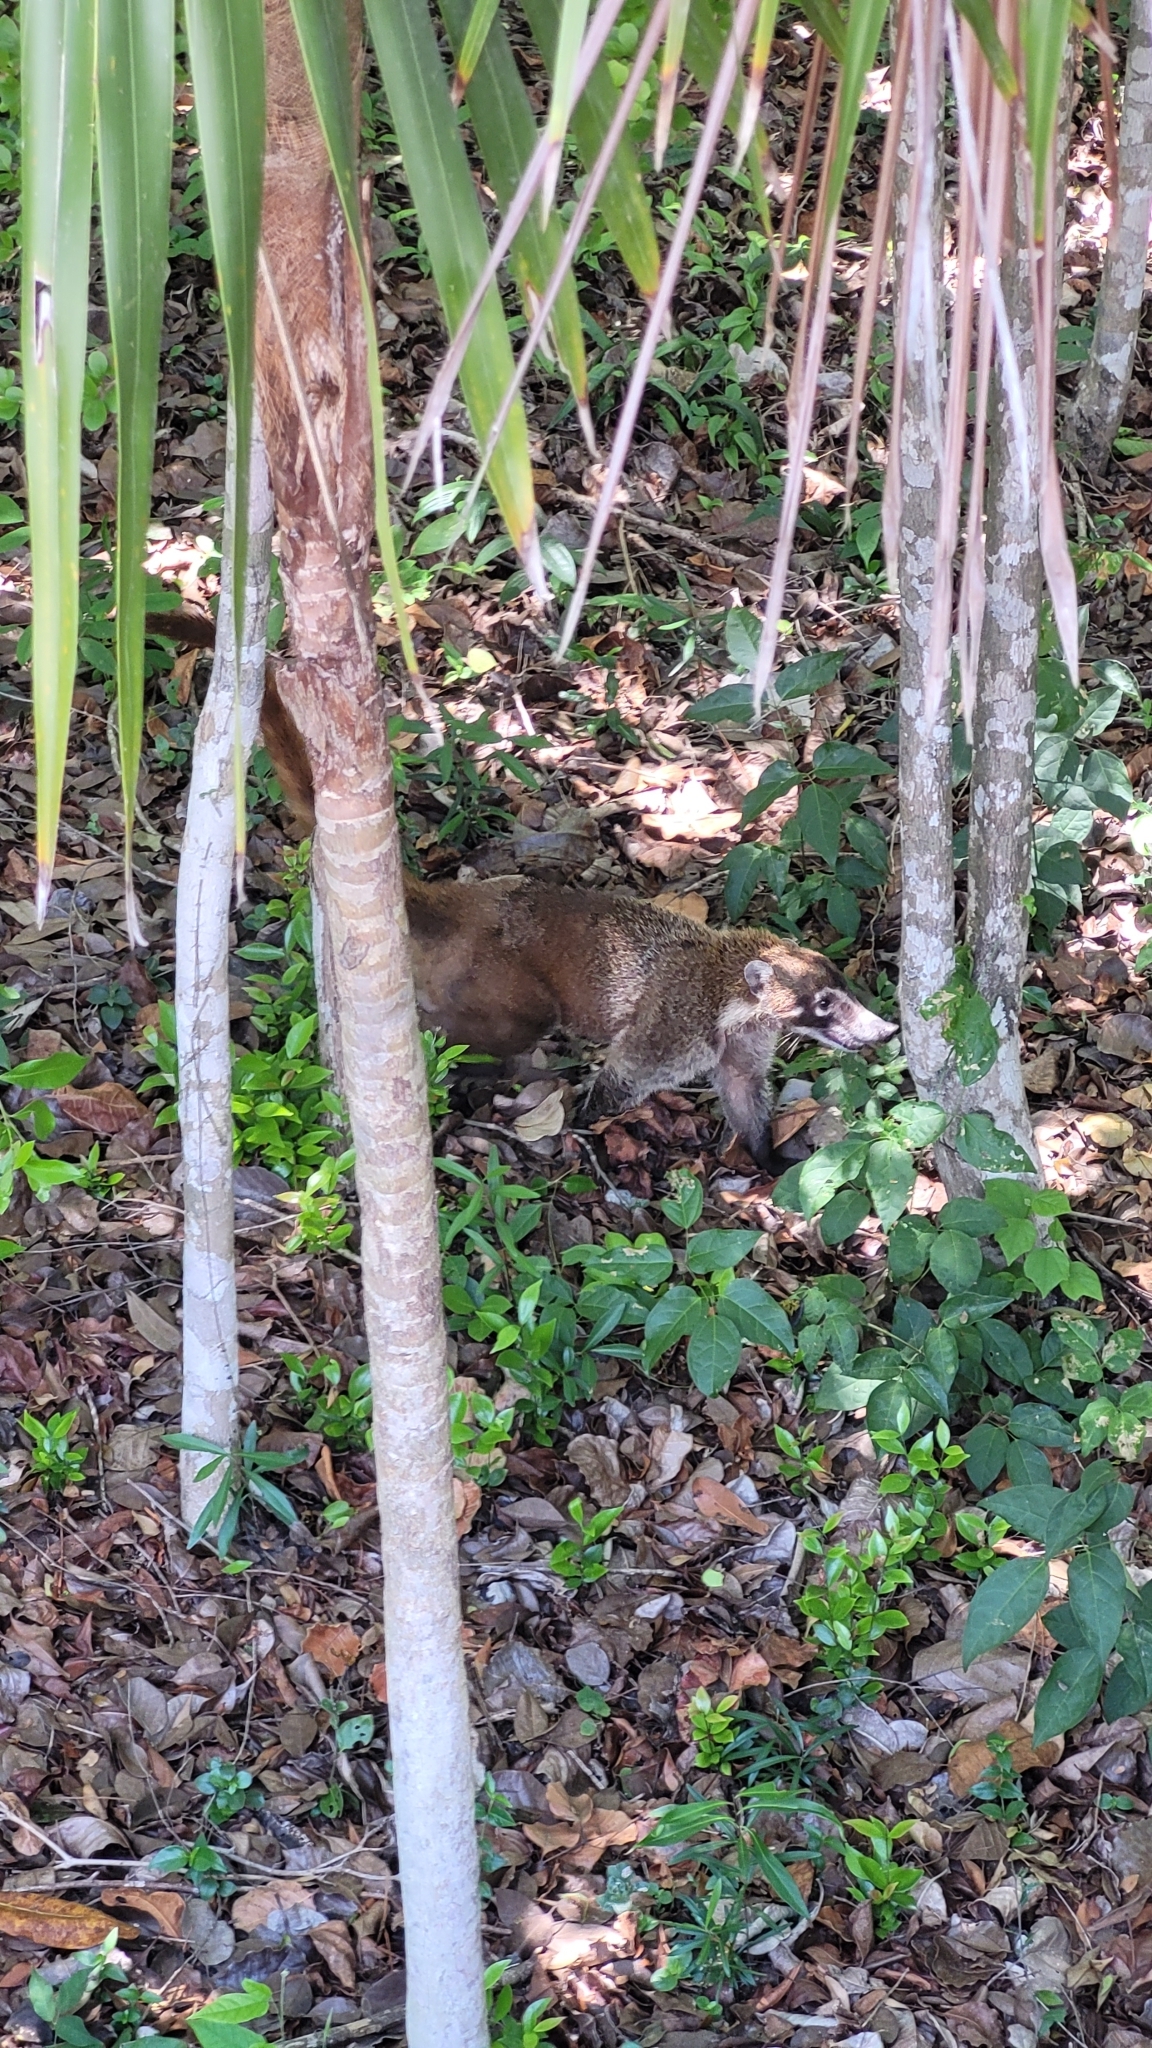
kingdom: Animalia
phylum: Chordata
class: Mammalia
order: Carnivora
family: Procyonidae
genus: Nasua
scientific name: Nasua narica
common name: White-nosed coati
